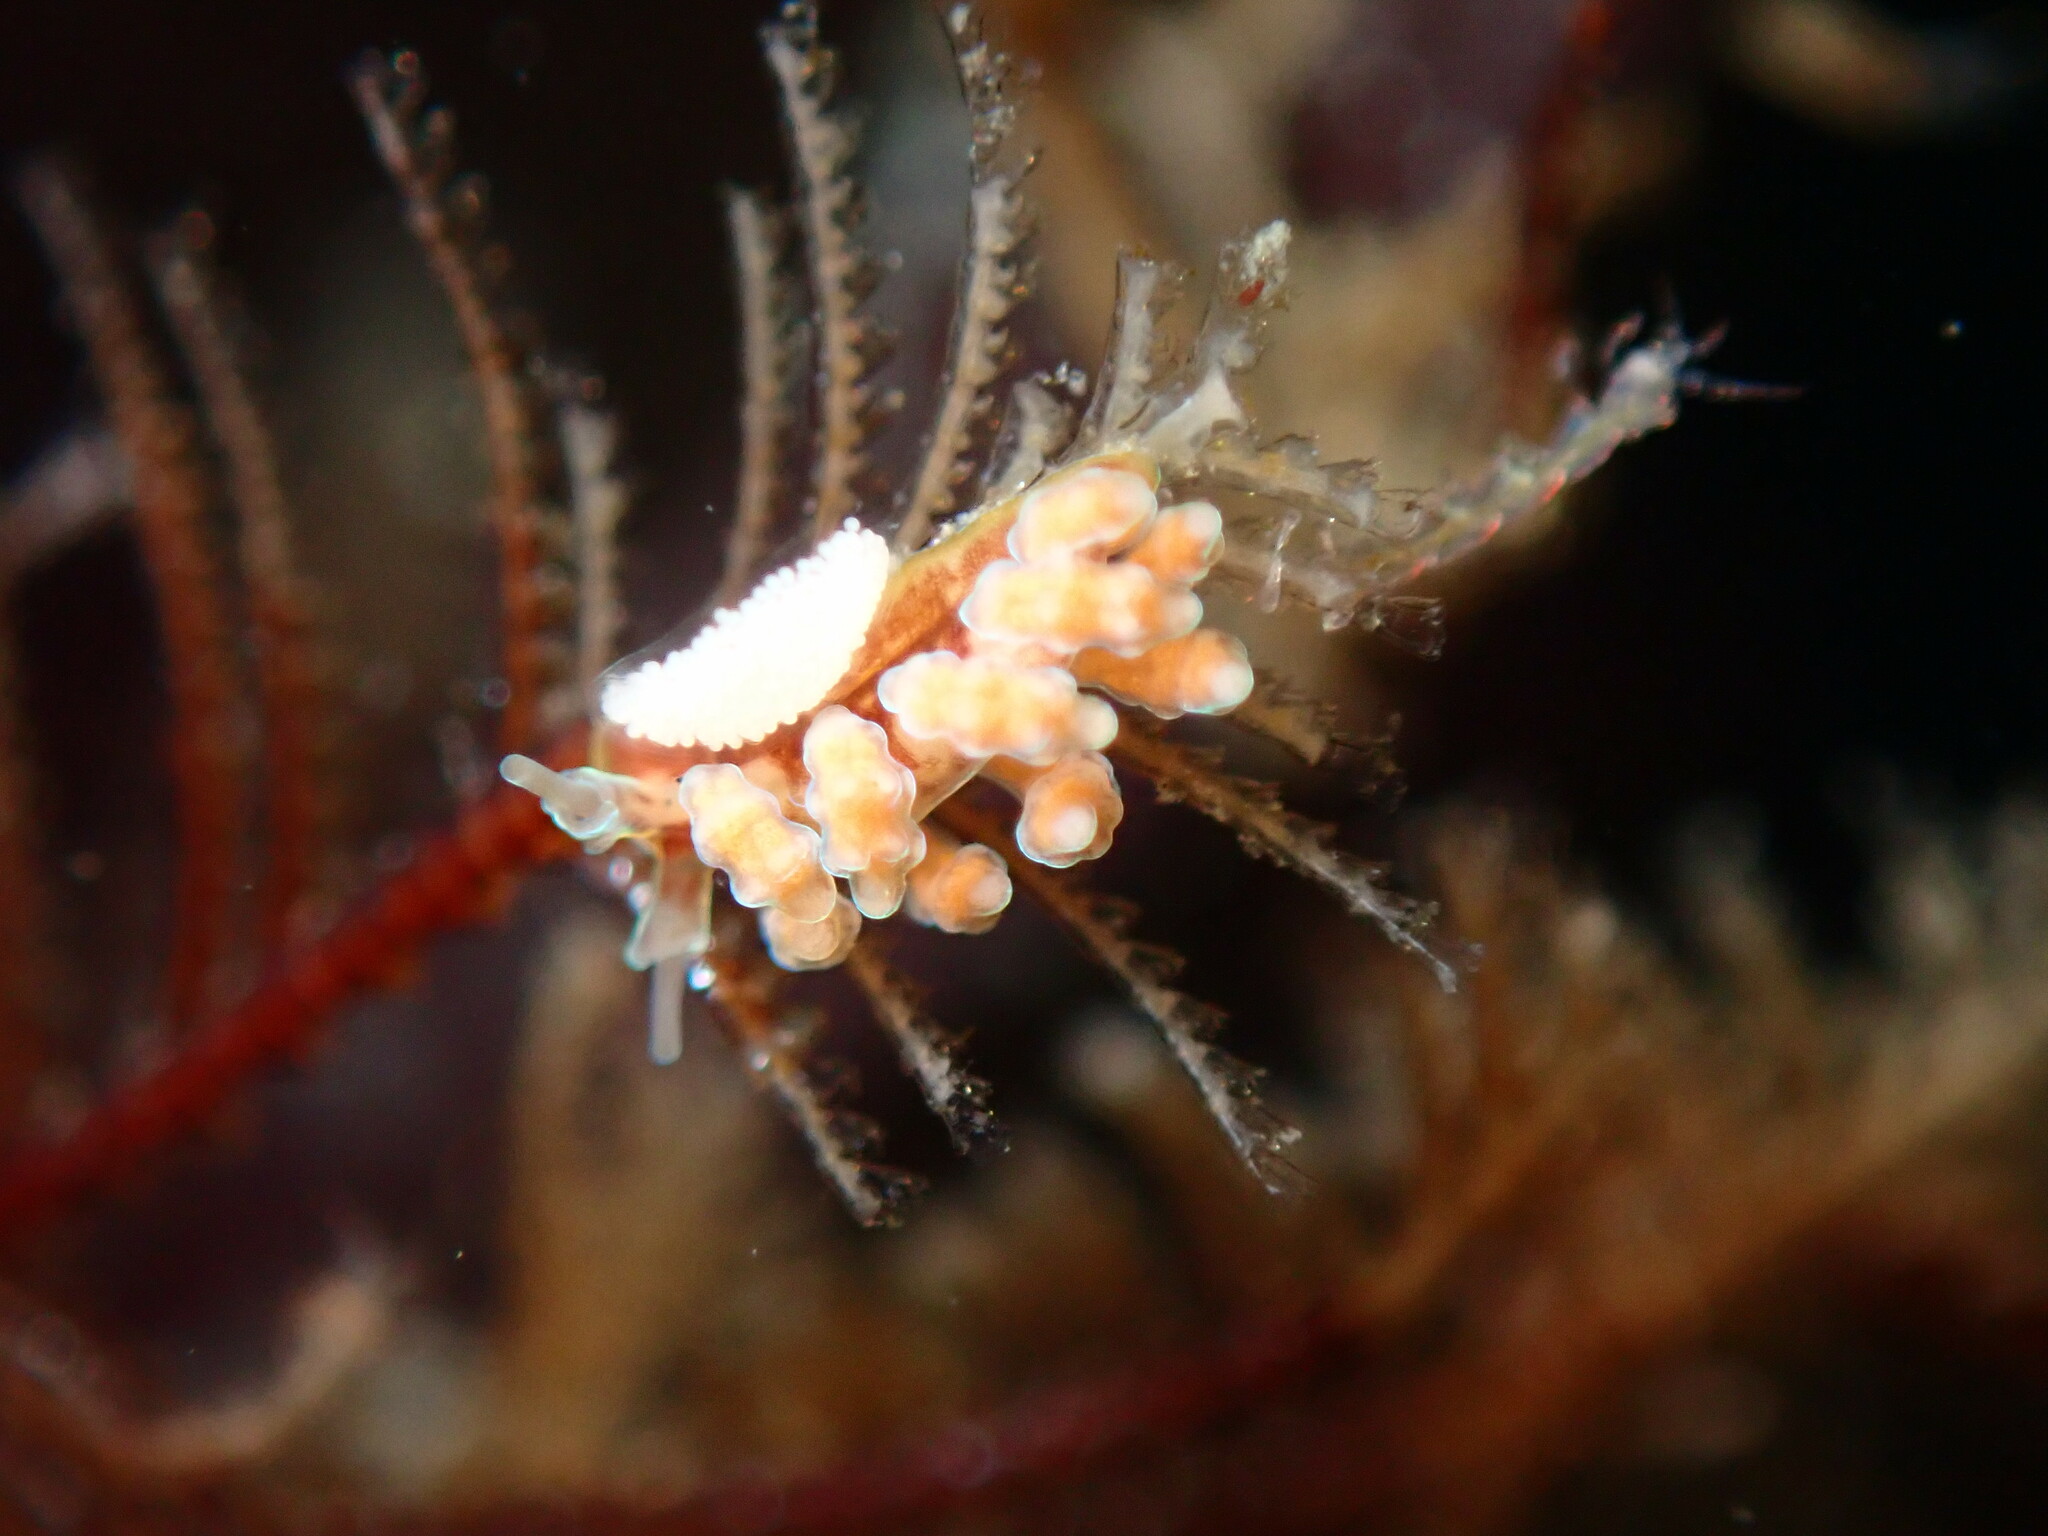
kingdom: Animalia
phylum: Mollusca
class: Gastropoda
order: Nudibranchia
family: Dotidae
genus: Doto
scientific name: Doto columbiana
